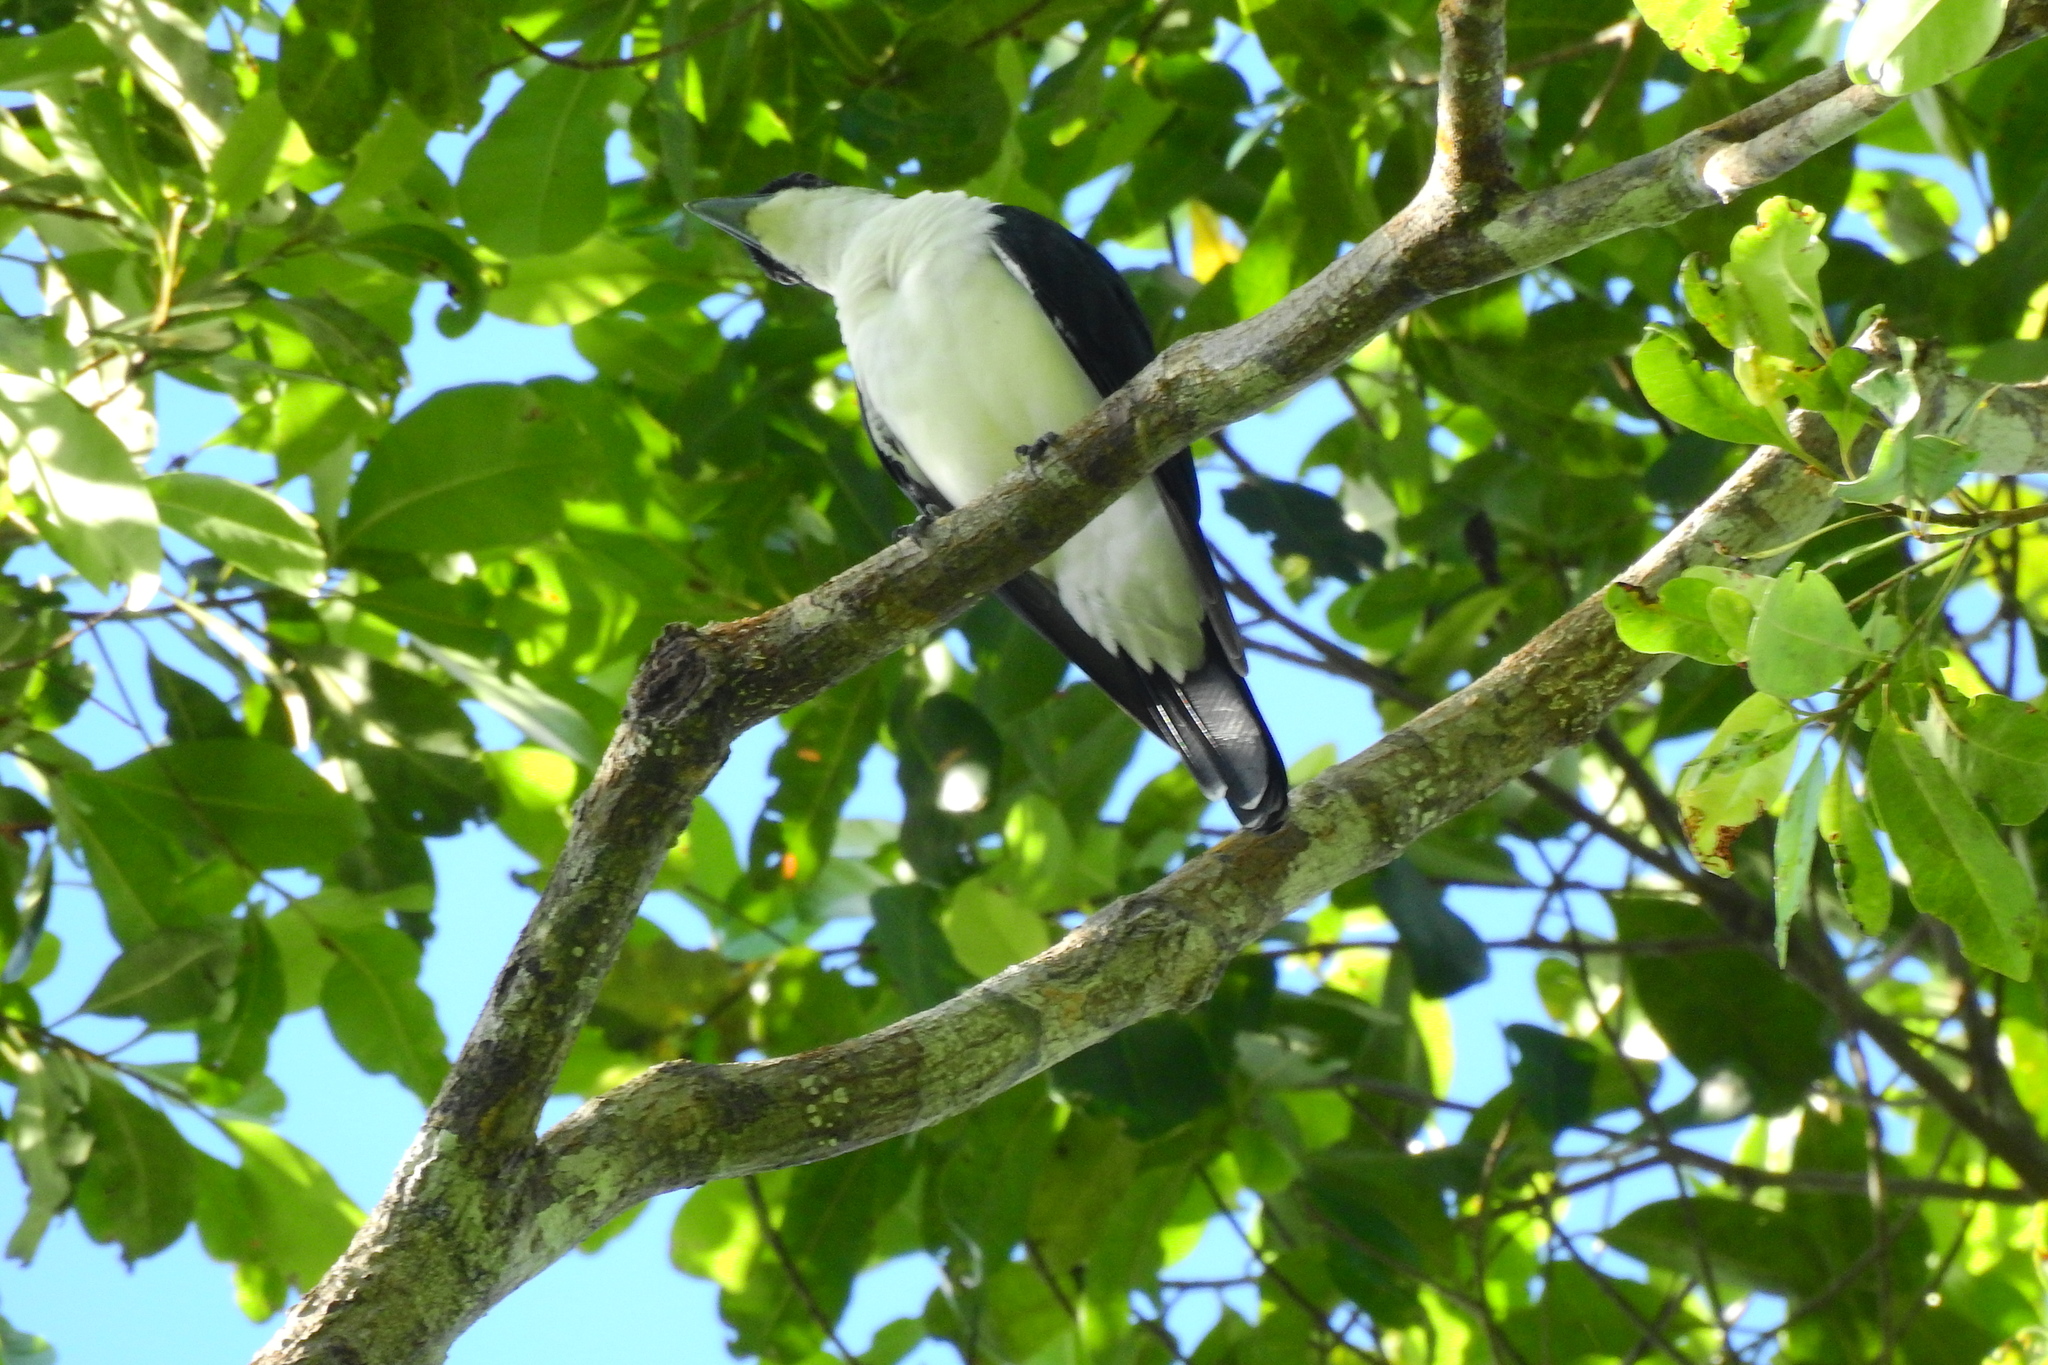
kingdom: Animalia
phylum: Chordata
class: Aves
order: Passeriformes
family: Campephagidae
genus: Coracina
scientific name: Coracina bicolor
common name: Pied cuckooshrike
